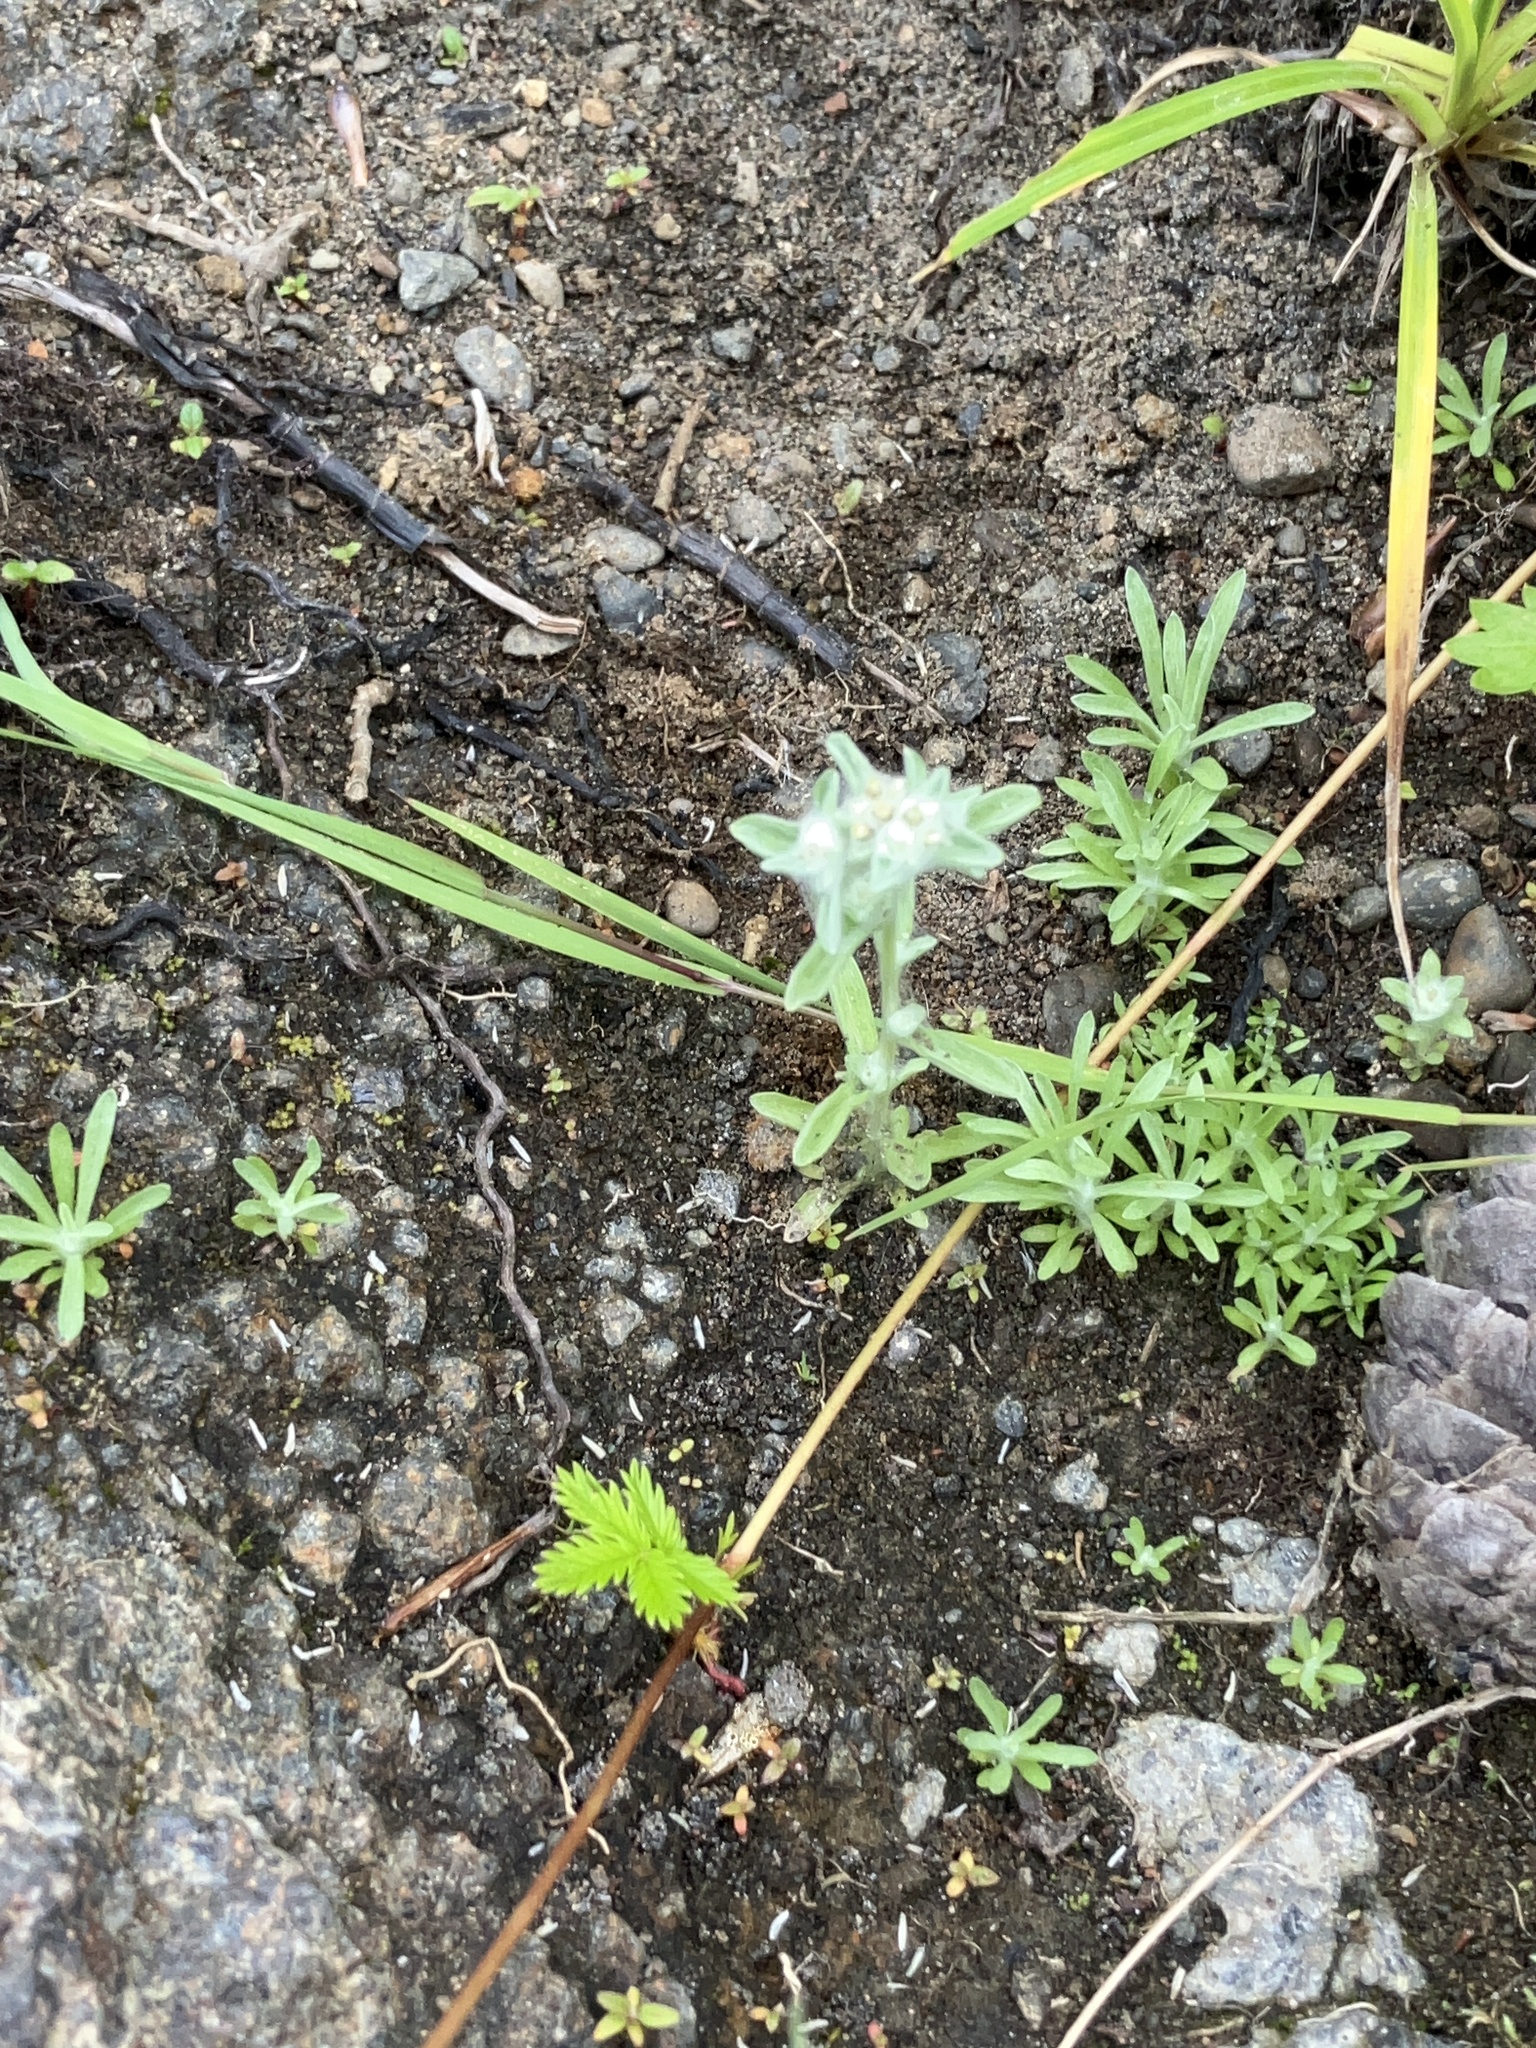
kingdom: Plantae
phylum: Tracheophyta
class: Magnoliopsida
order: Asterales
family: Asteraceae
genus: Gnaphalium
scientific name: Gnaphalium palustre
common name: Western marsh cudweed
